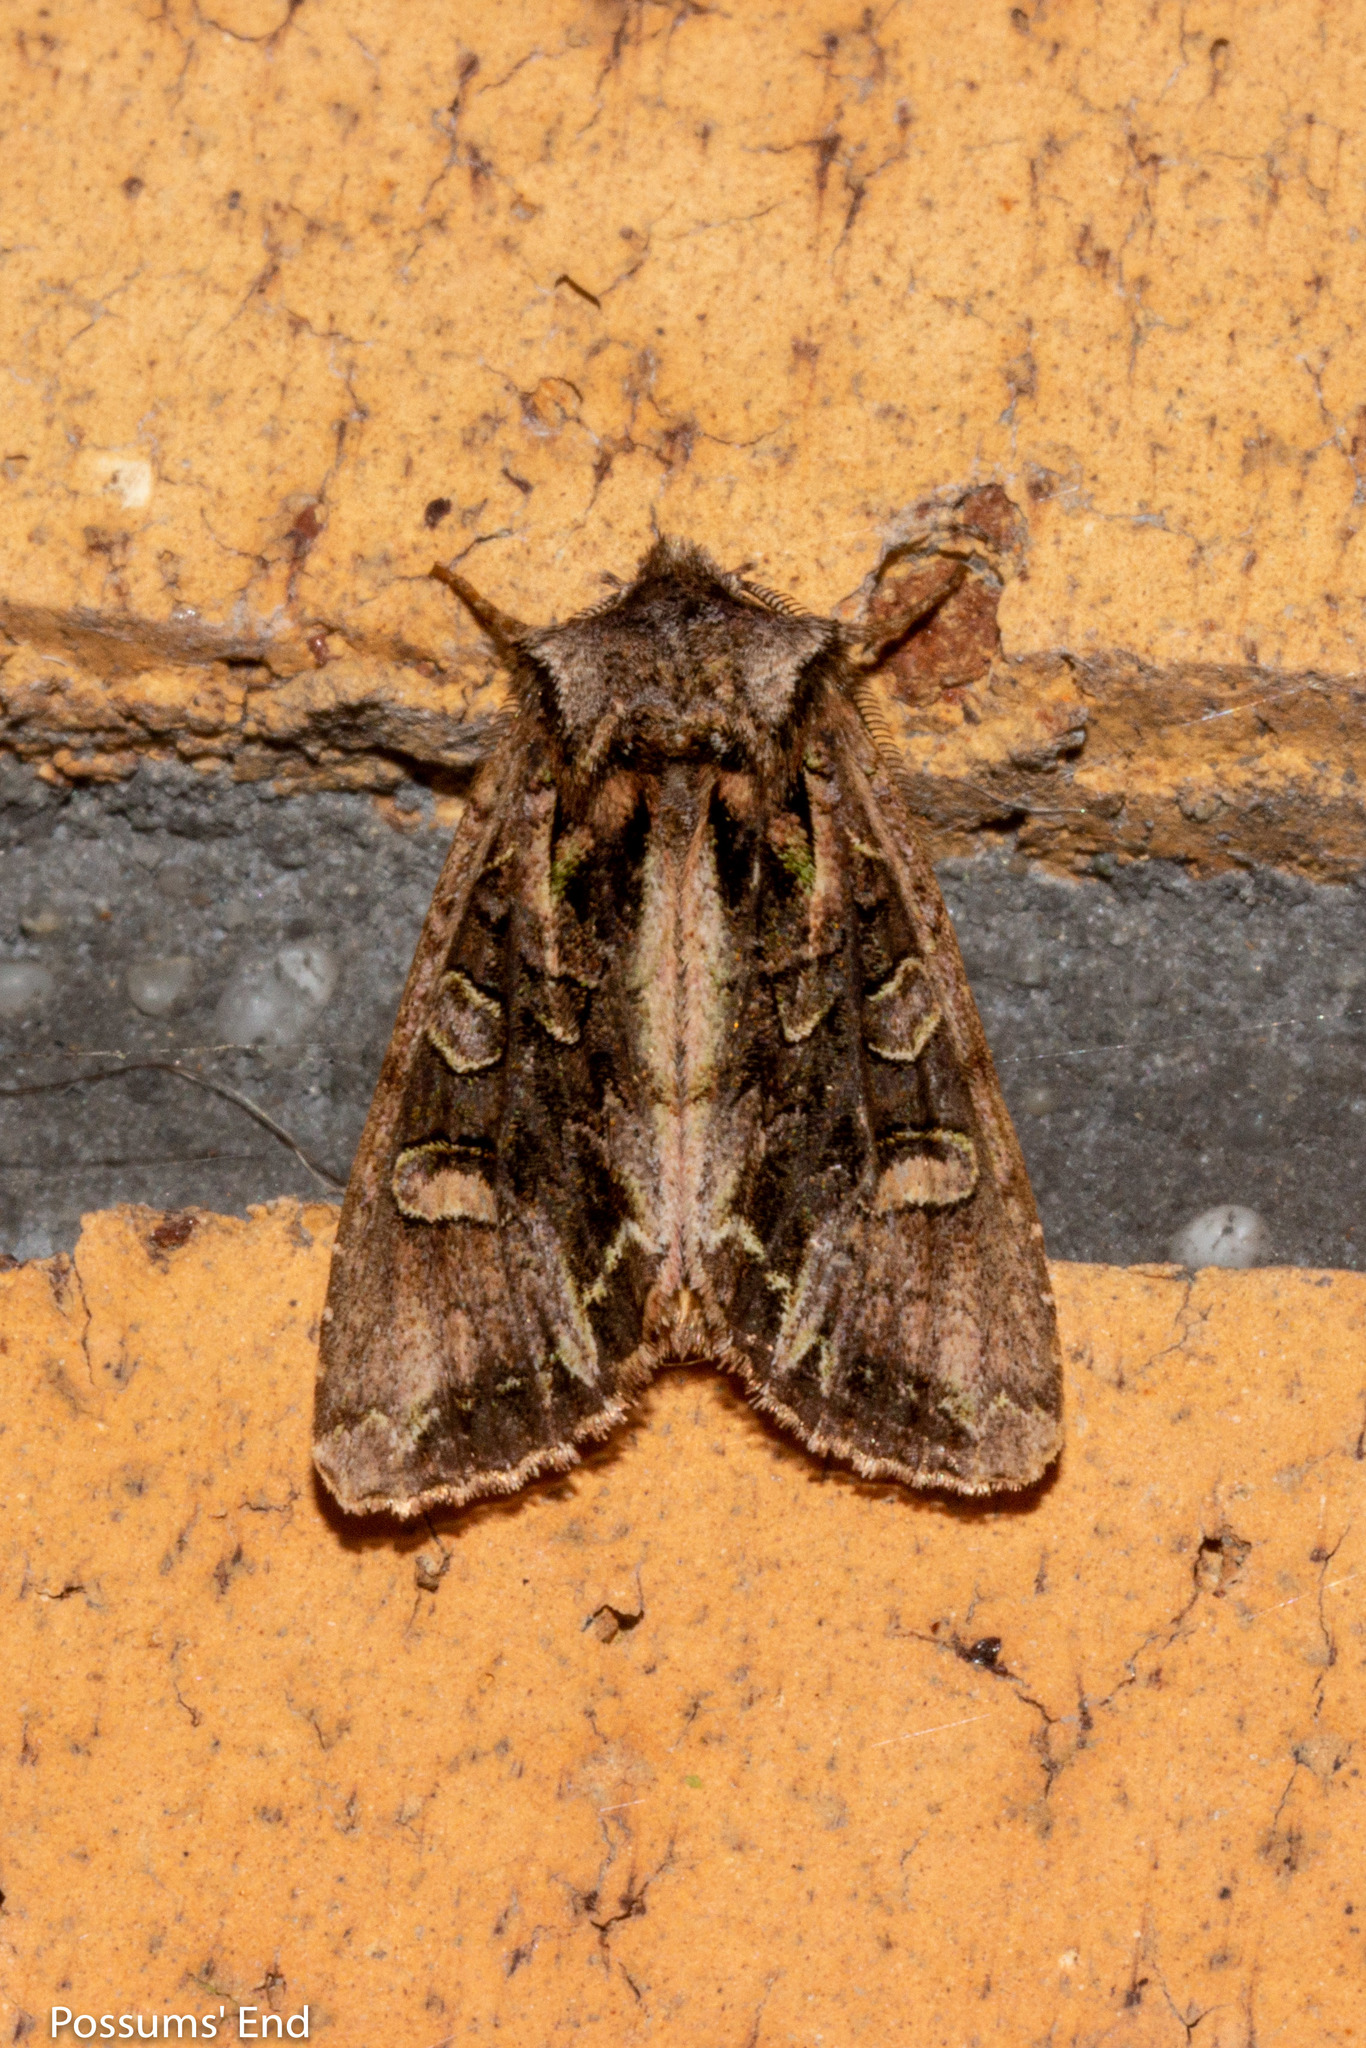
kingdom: Animalia
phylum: Arthropoda
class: Insecta
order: Lepidoptera
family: Noctuidae
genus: Ichneutica
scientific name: Ichneutica insignis
